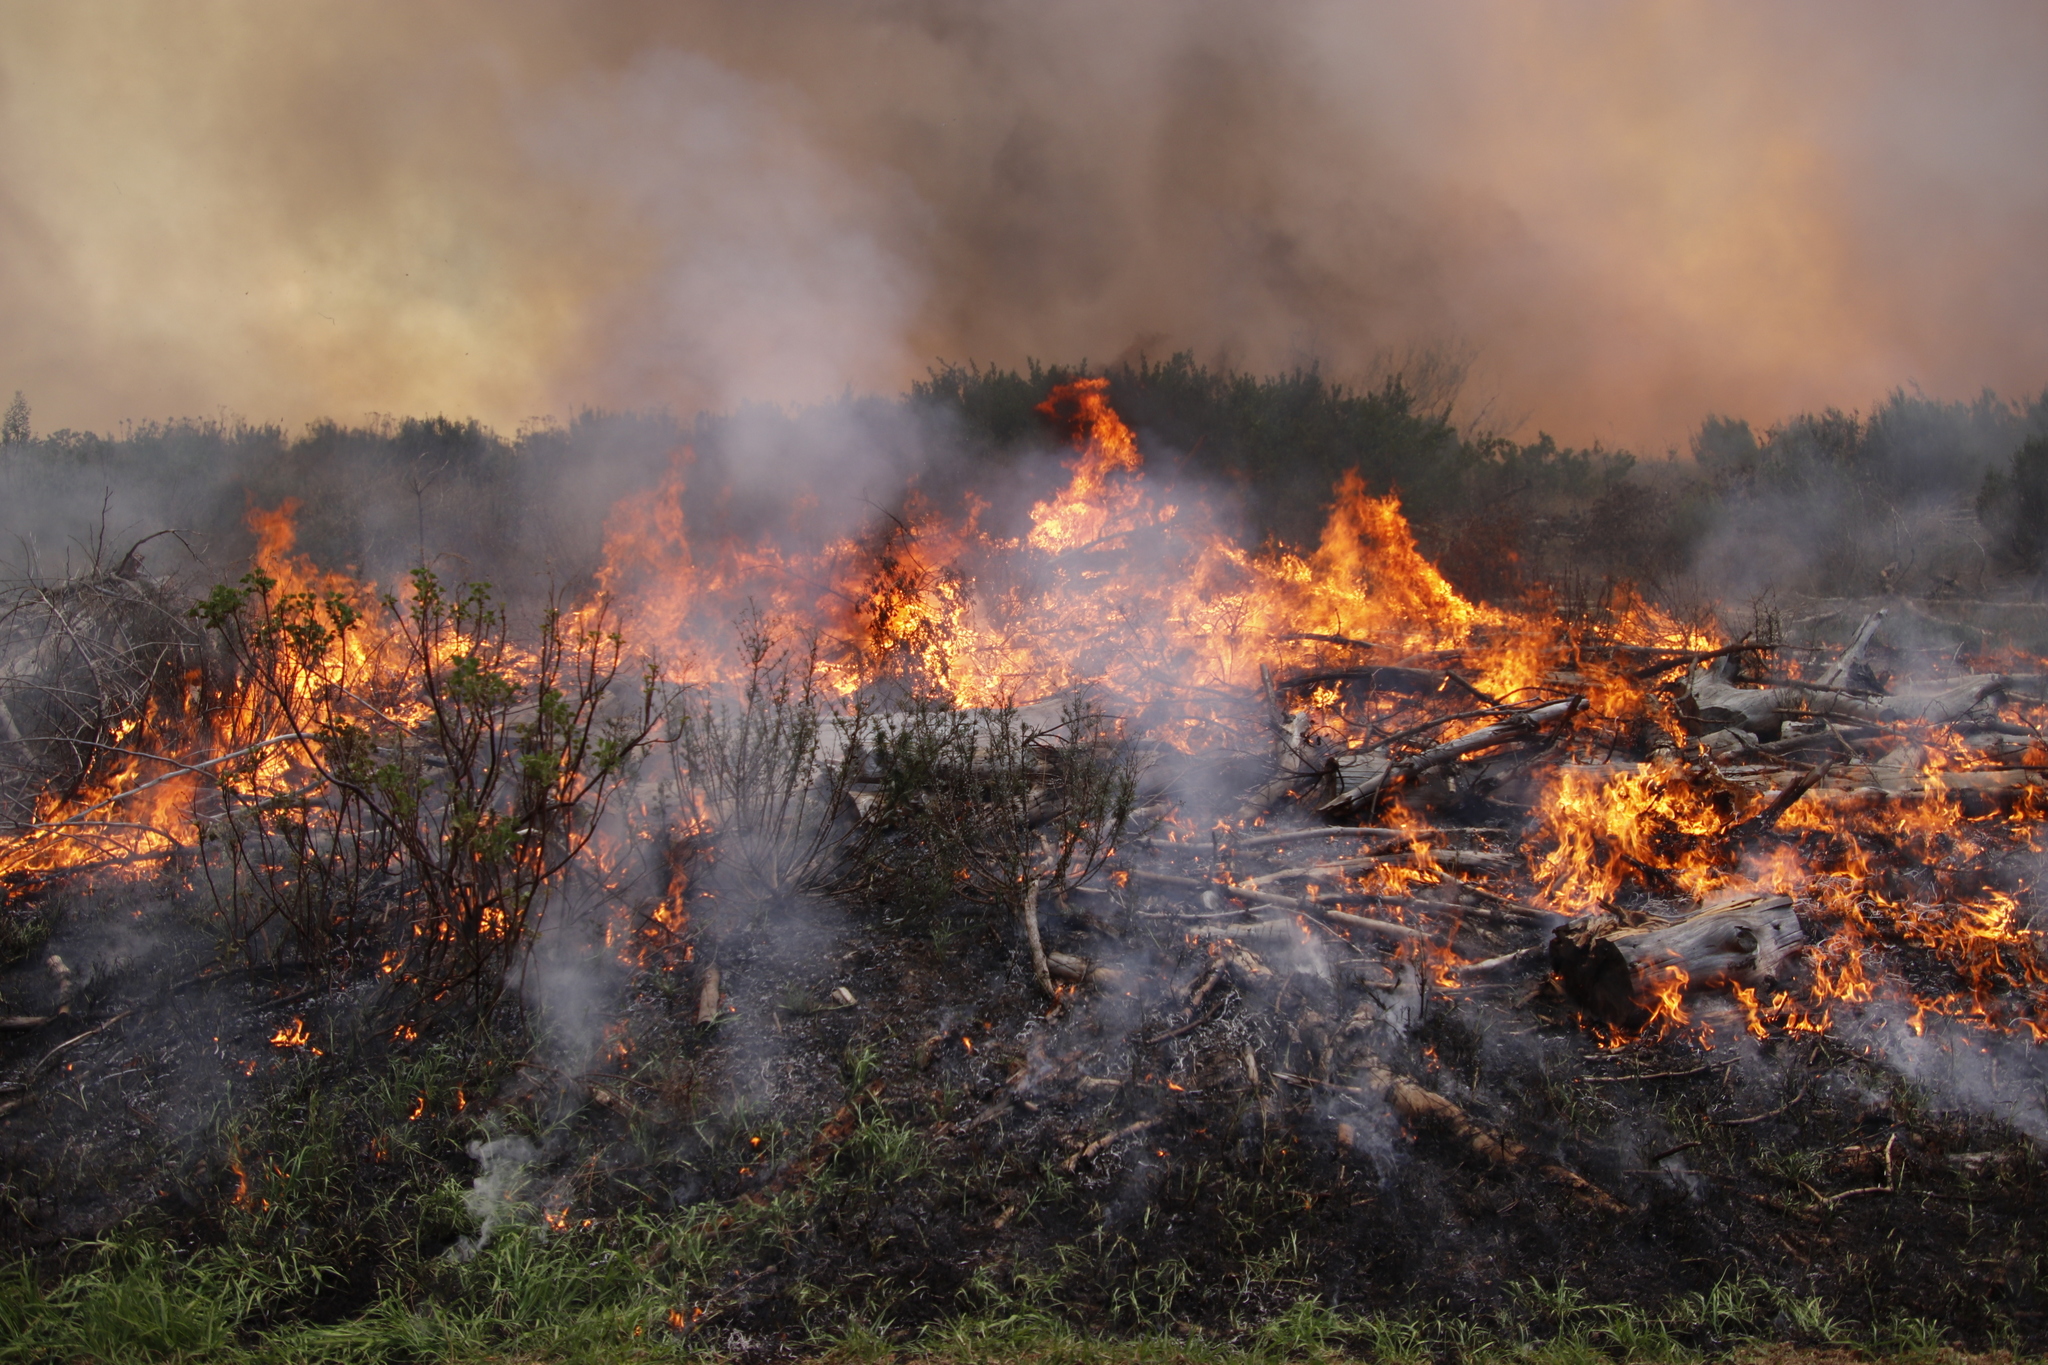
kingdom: Plantae
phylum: Tracheophyta
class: Magnoliopsida
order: Malvales
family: Thymelaeaceae
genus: Passerina
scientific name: Passerina corymbosa
